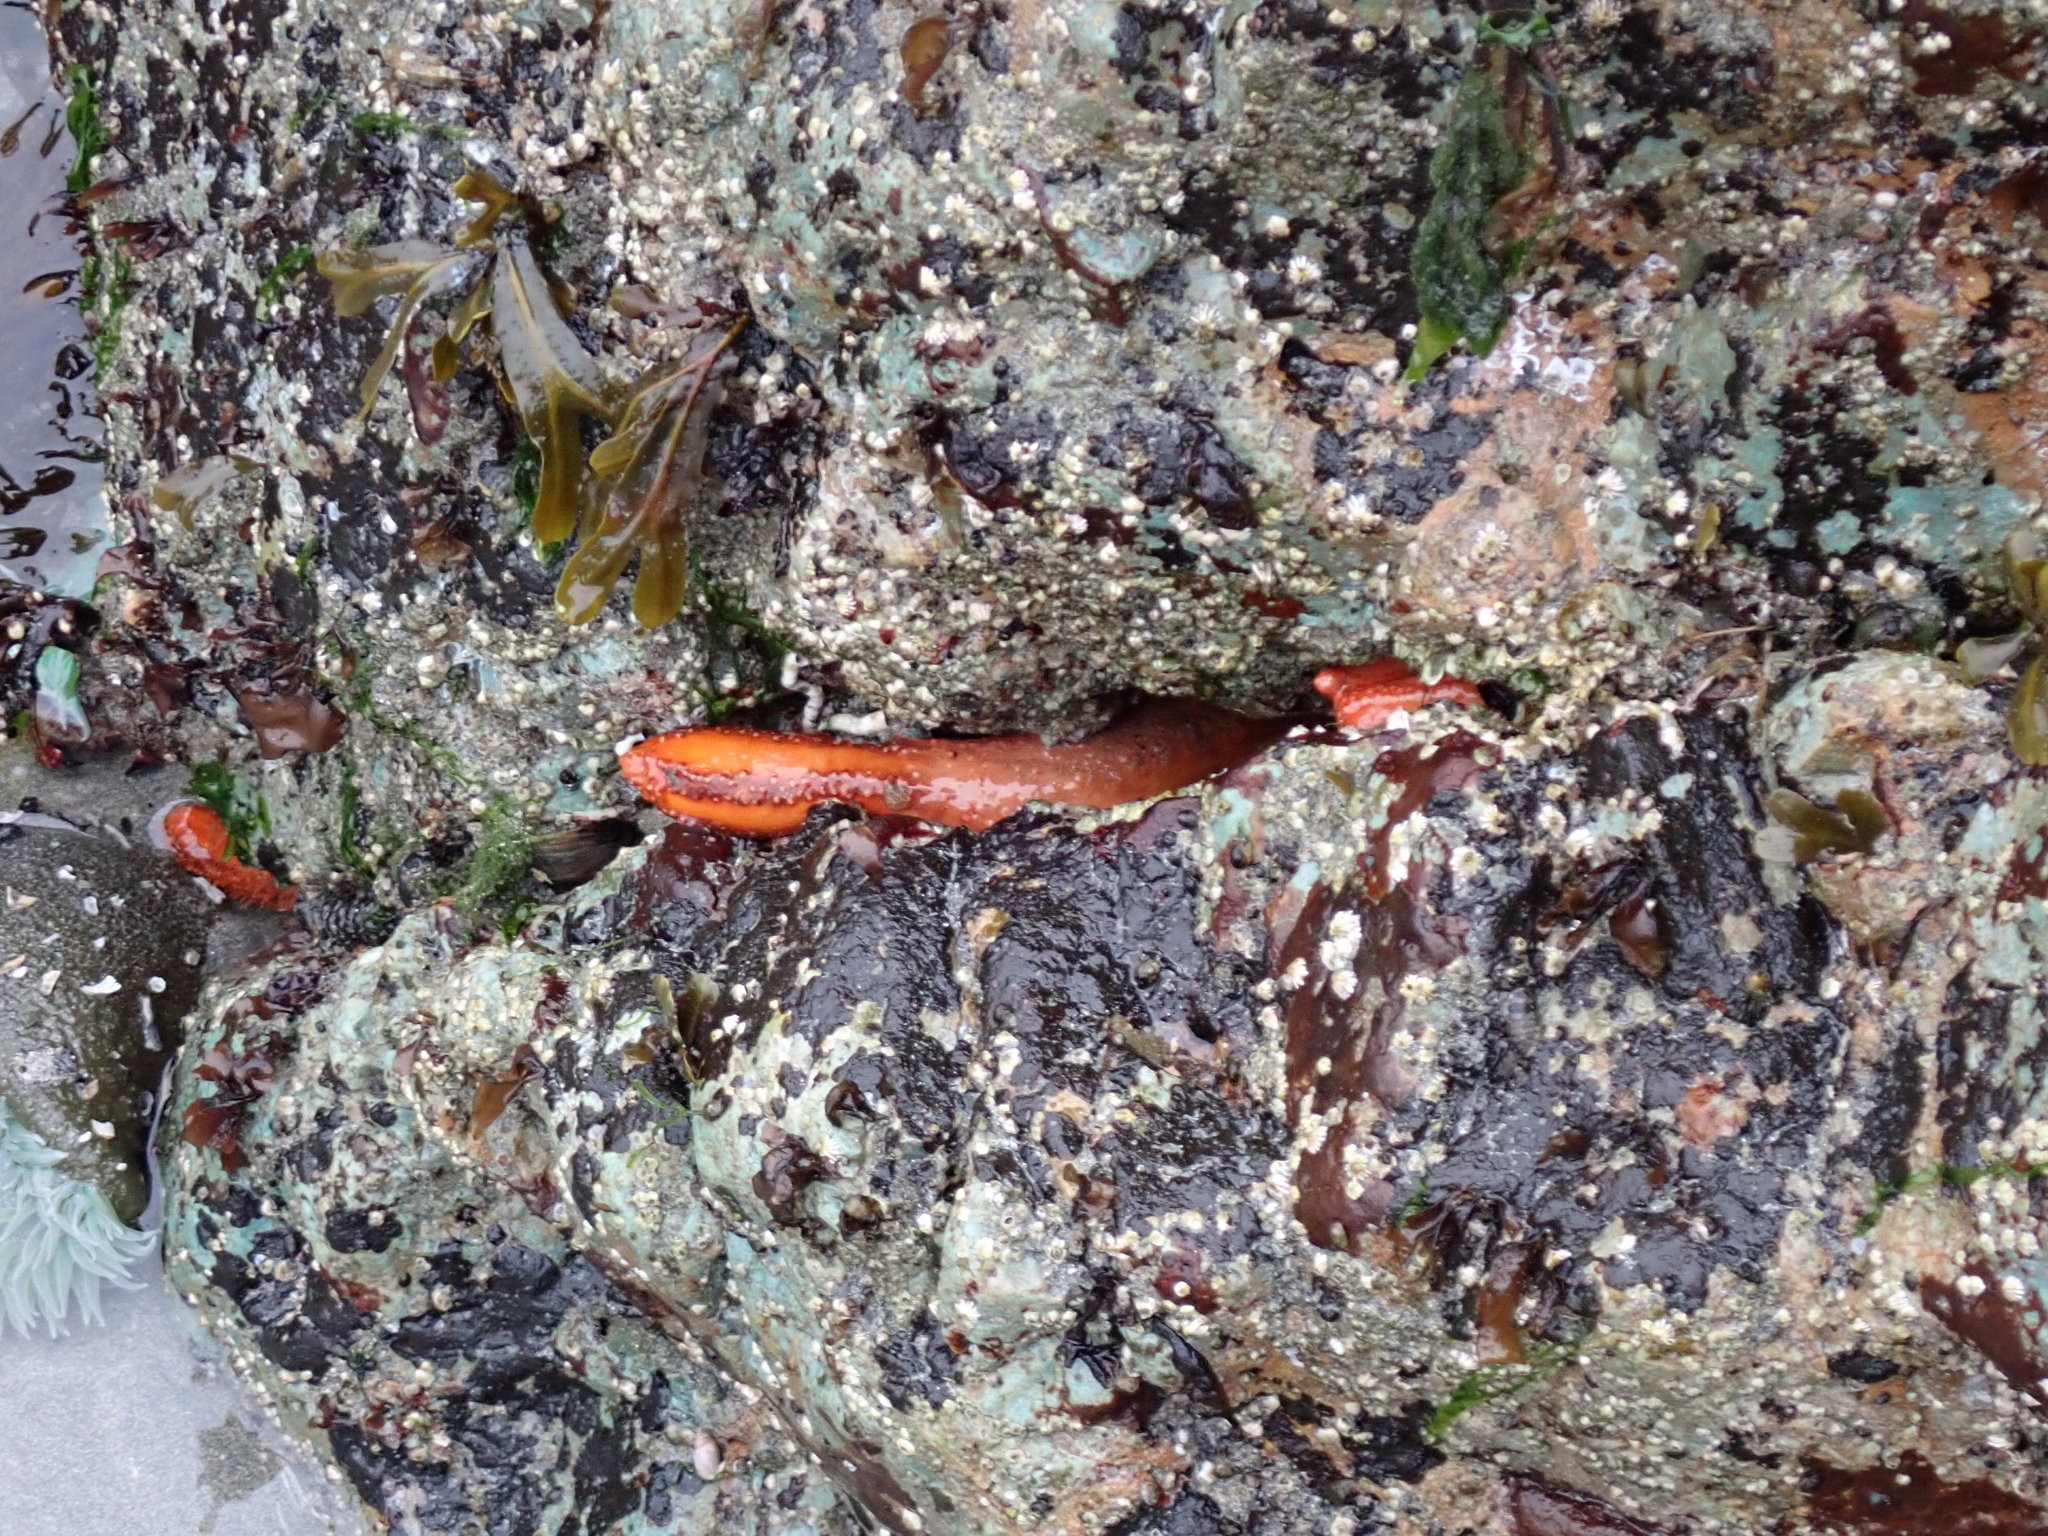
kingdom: Animalia
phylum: Echinodermata
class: Holothuroidea
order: Dendrochirotida
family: Cucumariidae
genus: Cucumaria
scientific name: Cucumaria miniata
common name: Orange sea cucumber
